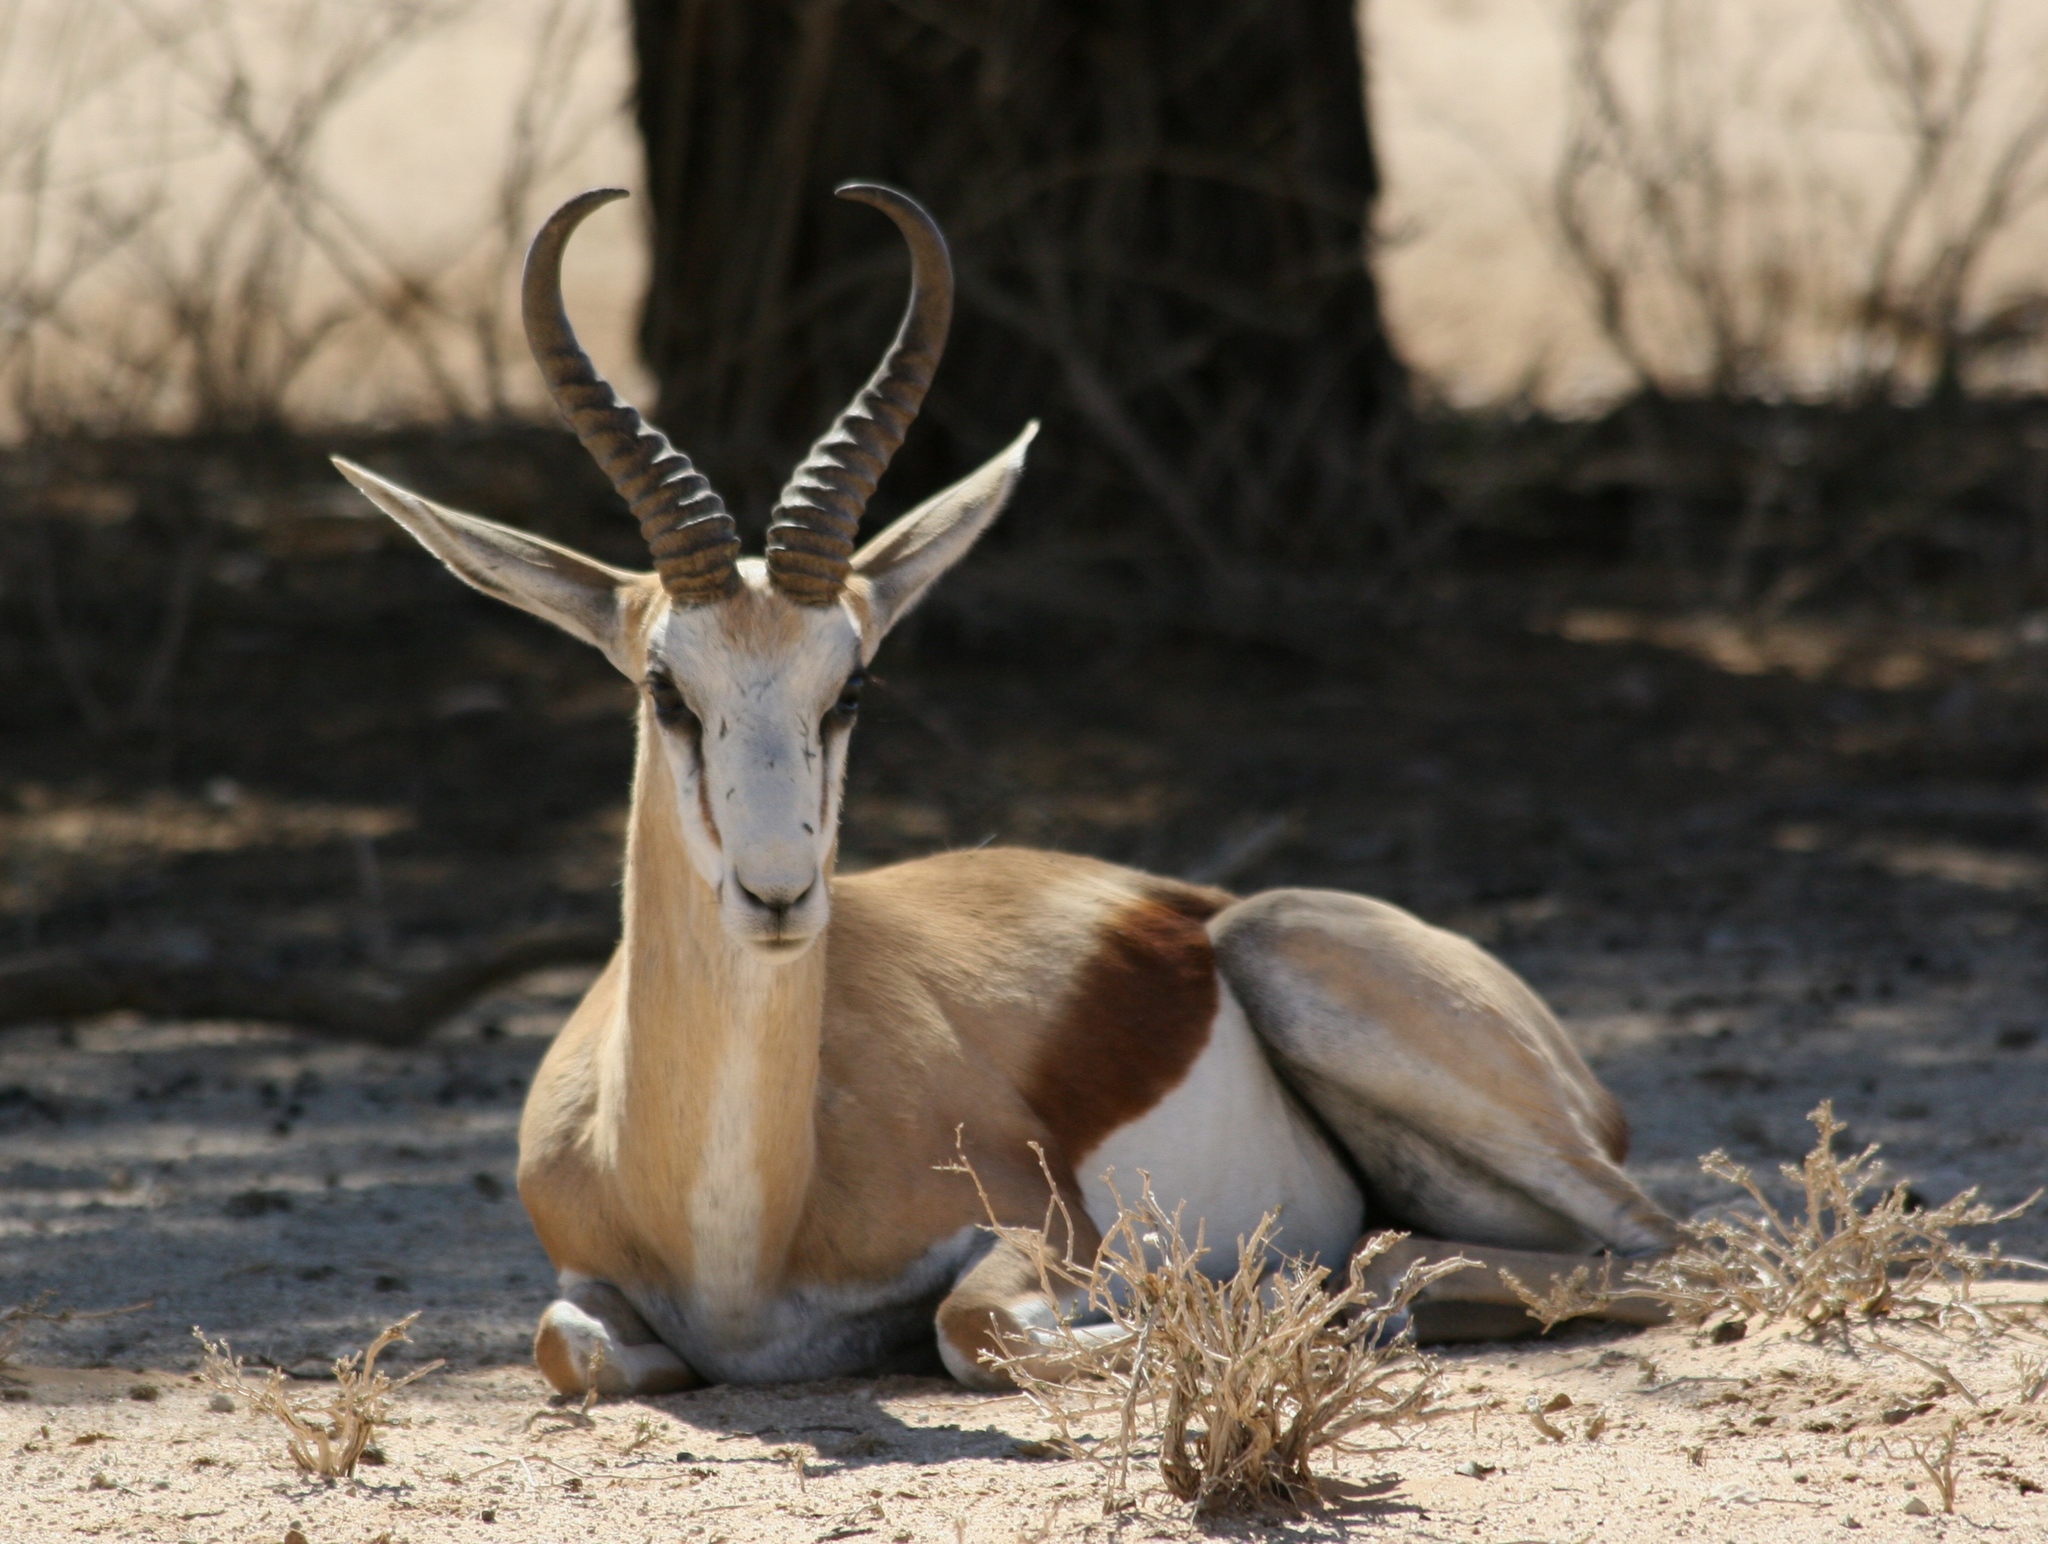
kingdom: Animalia
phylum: Chordata
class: Mammalia
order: Artiodactyla
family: Bovidae
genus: Antidorcas
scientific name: Antidorcas marsupialis
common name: Springbok
